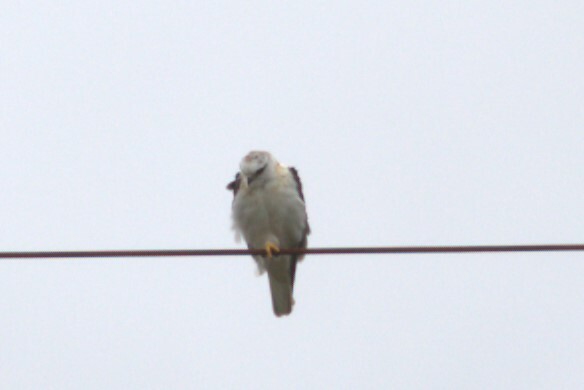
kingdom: Animalia
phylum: Chordata
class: Aves
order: Accipitriformes
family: Accipitridae
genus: Elanus
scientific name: Elanus axillaris
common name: Black-shouldered kite
